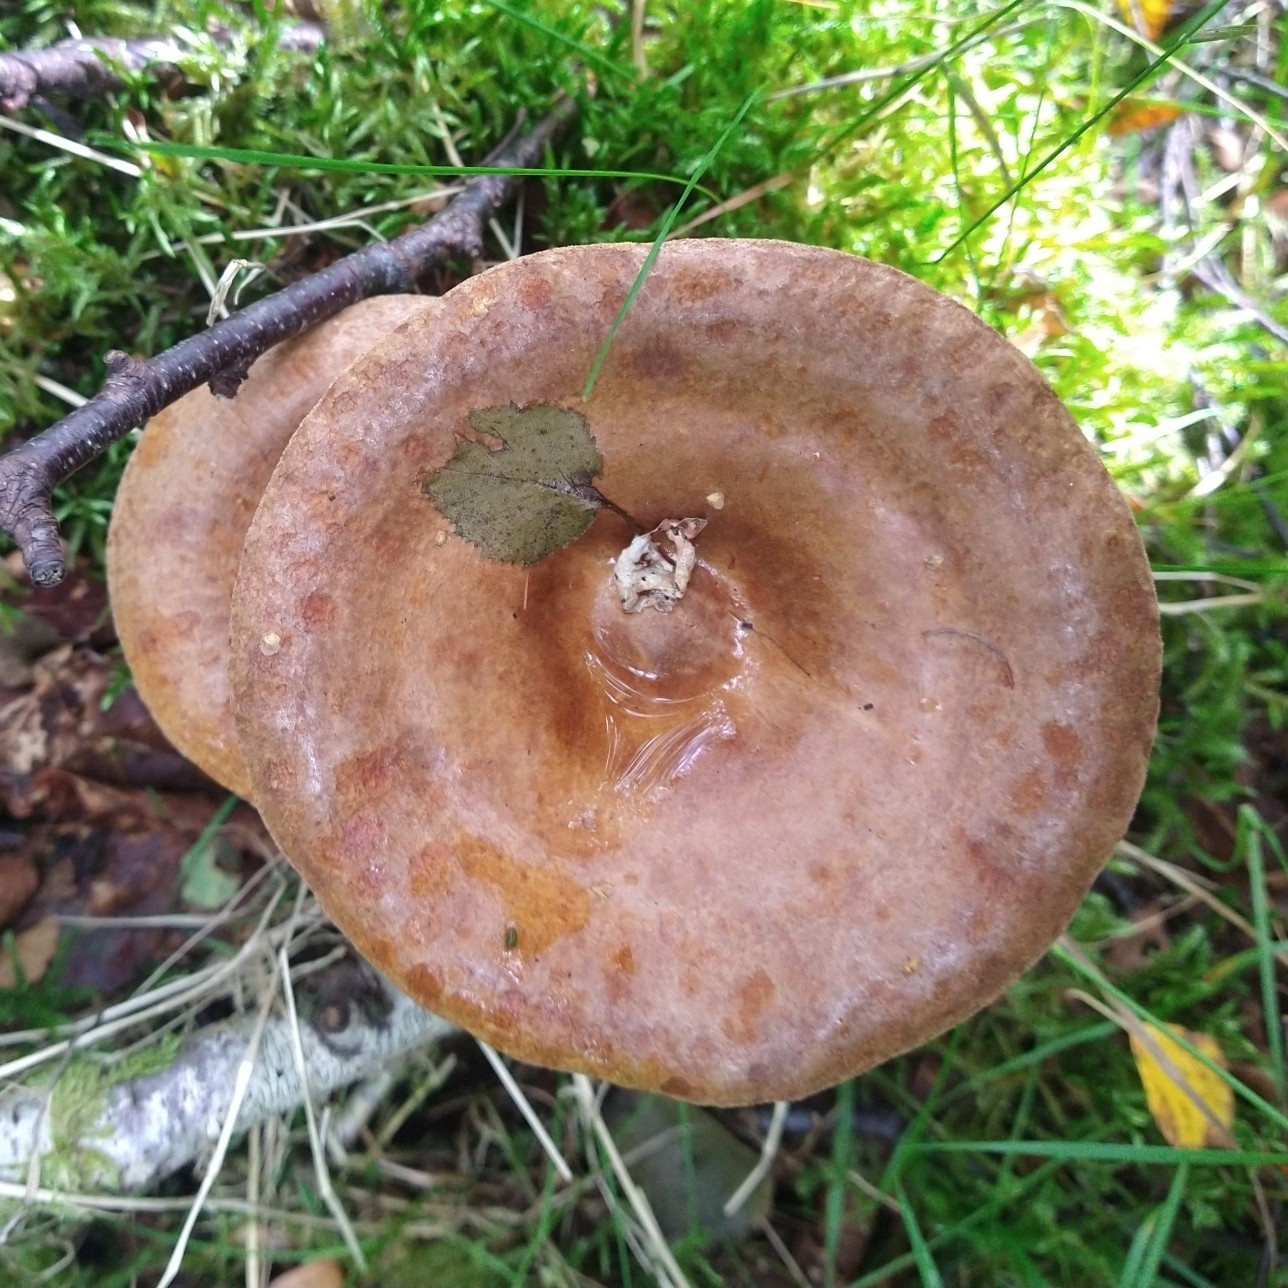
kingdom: Fungi
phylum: Basidiomycota
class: Agaricomycetes
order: Boletales
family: Paxillaceae
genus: Paxillus
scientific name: Paxillus involutus
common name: Brown roll rim
